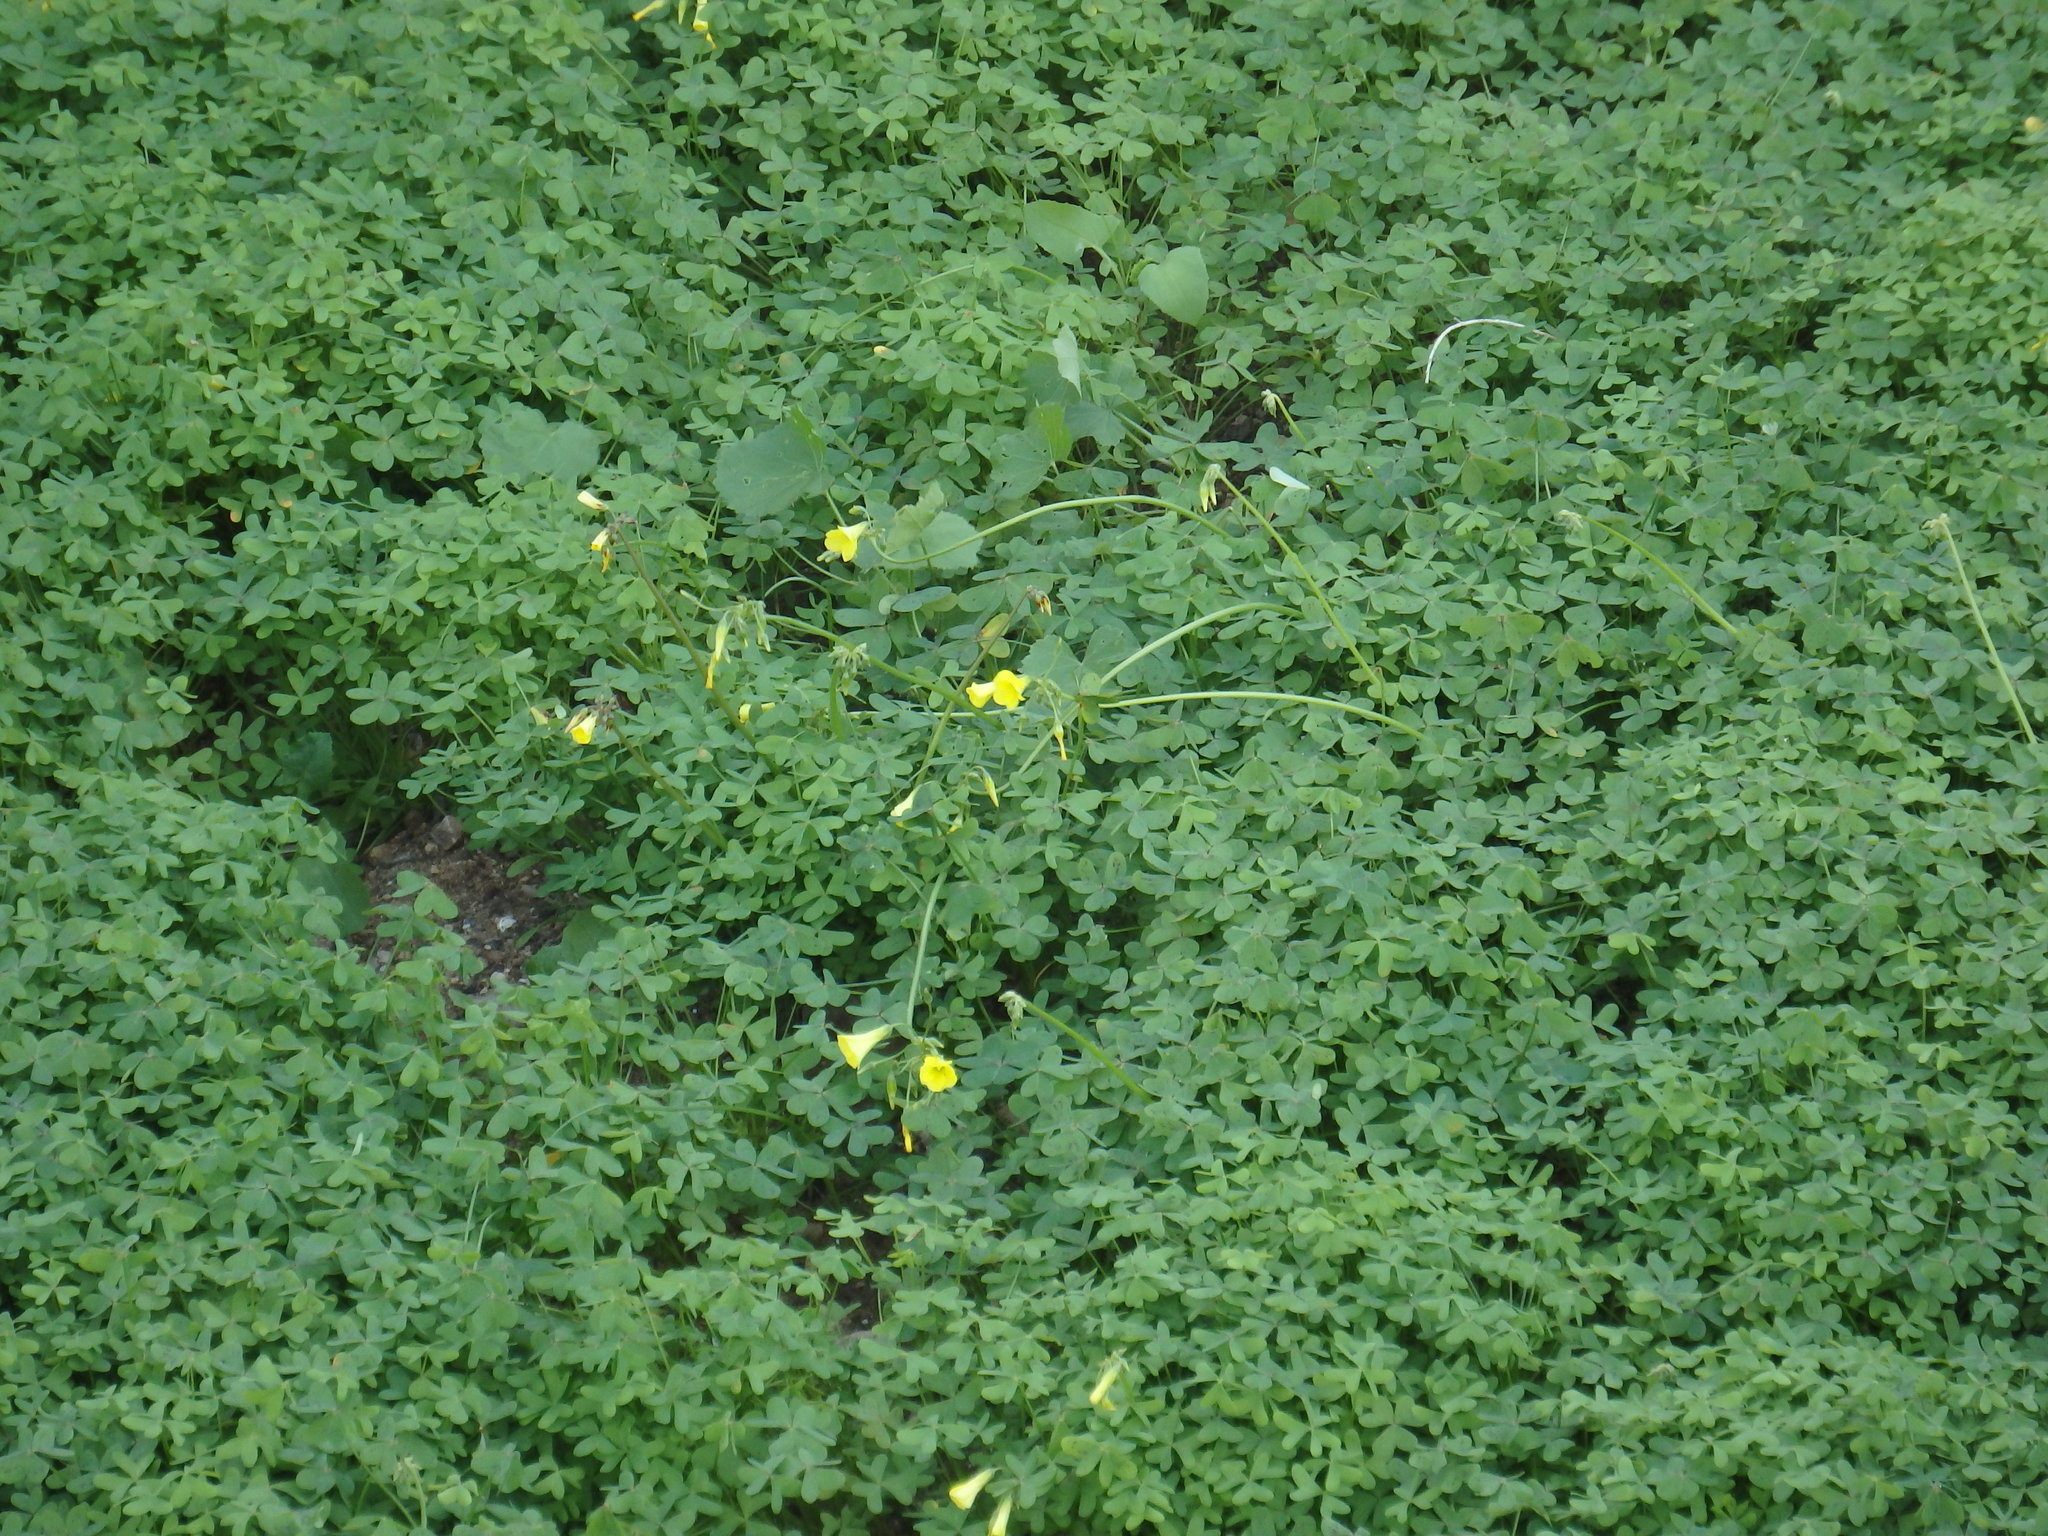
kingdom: Plantae
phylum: Tracheophyta
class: Magnoliopsida
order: Oxalidales
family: Oxalidaceae
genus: Oxalis
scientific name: Oxalis pes-caprae
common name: Bermuda-buttercup
